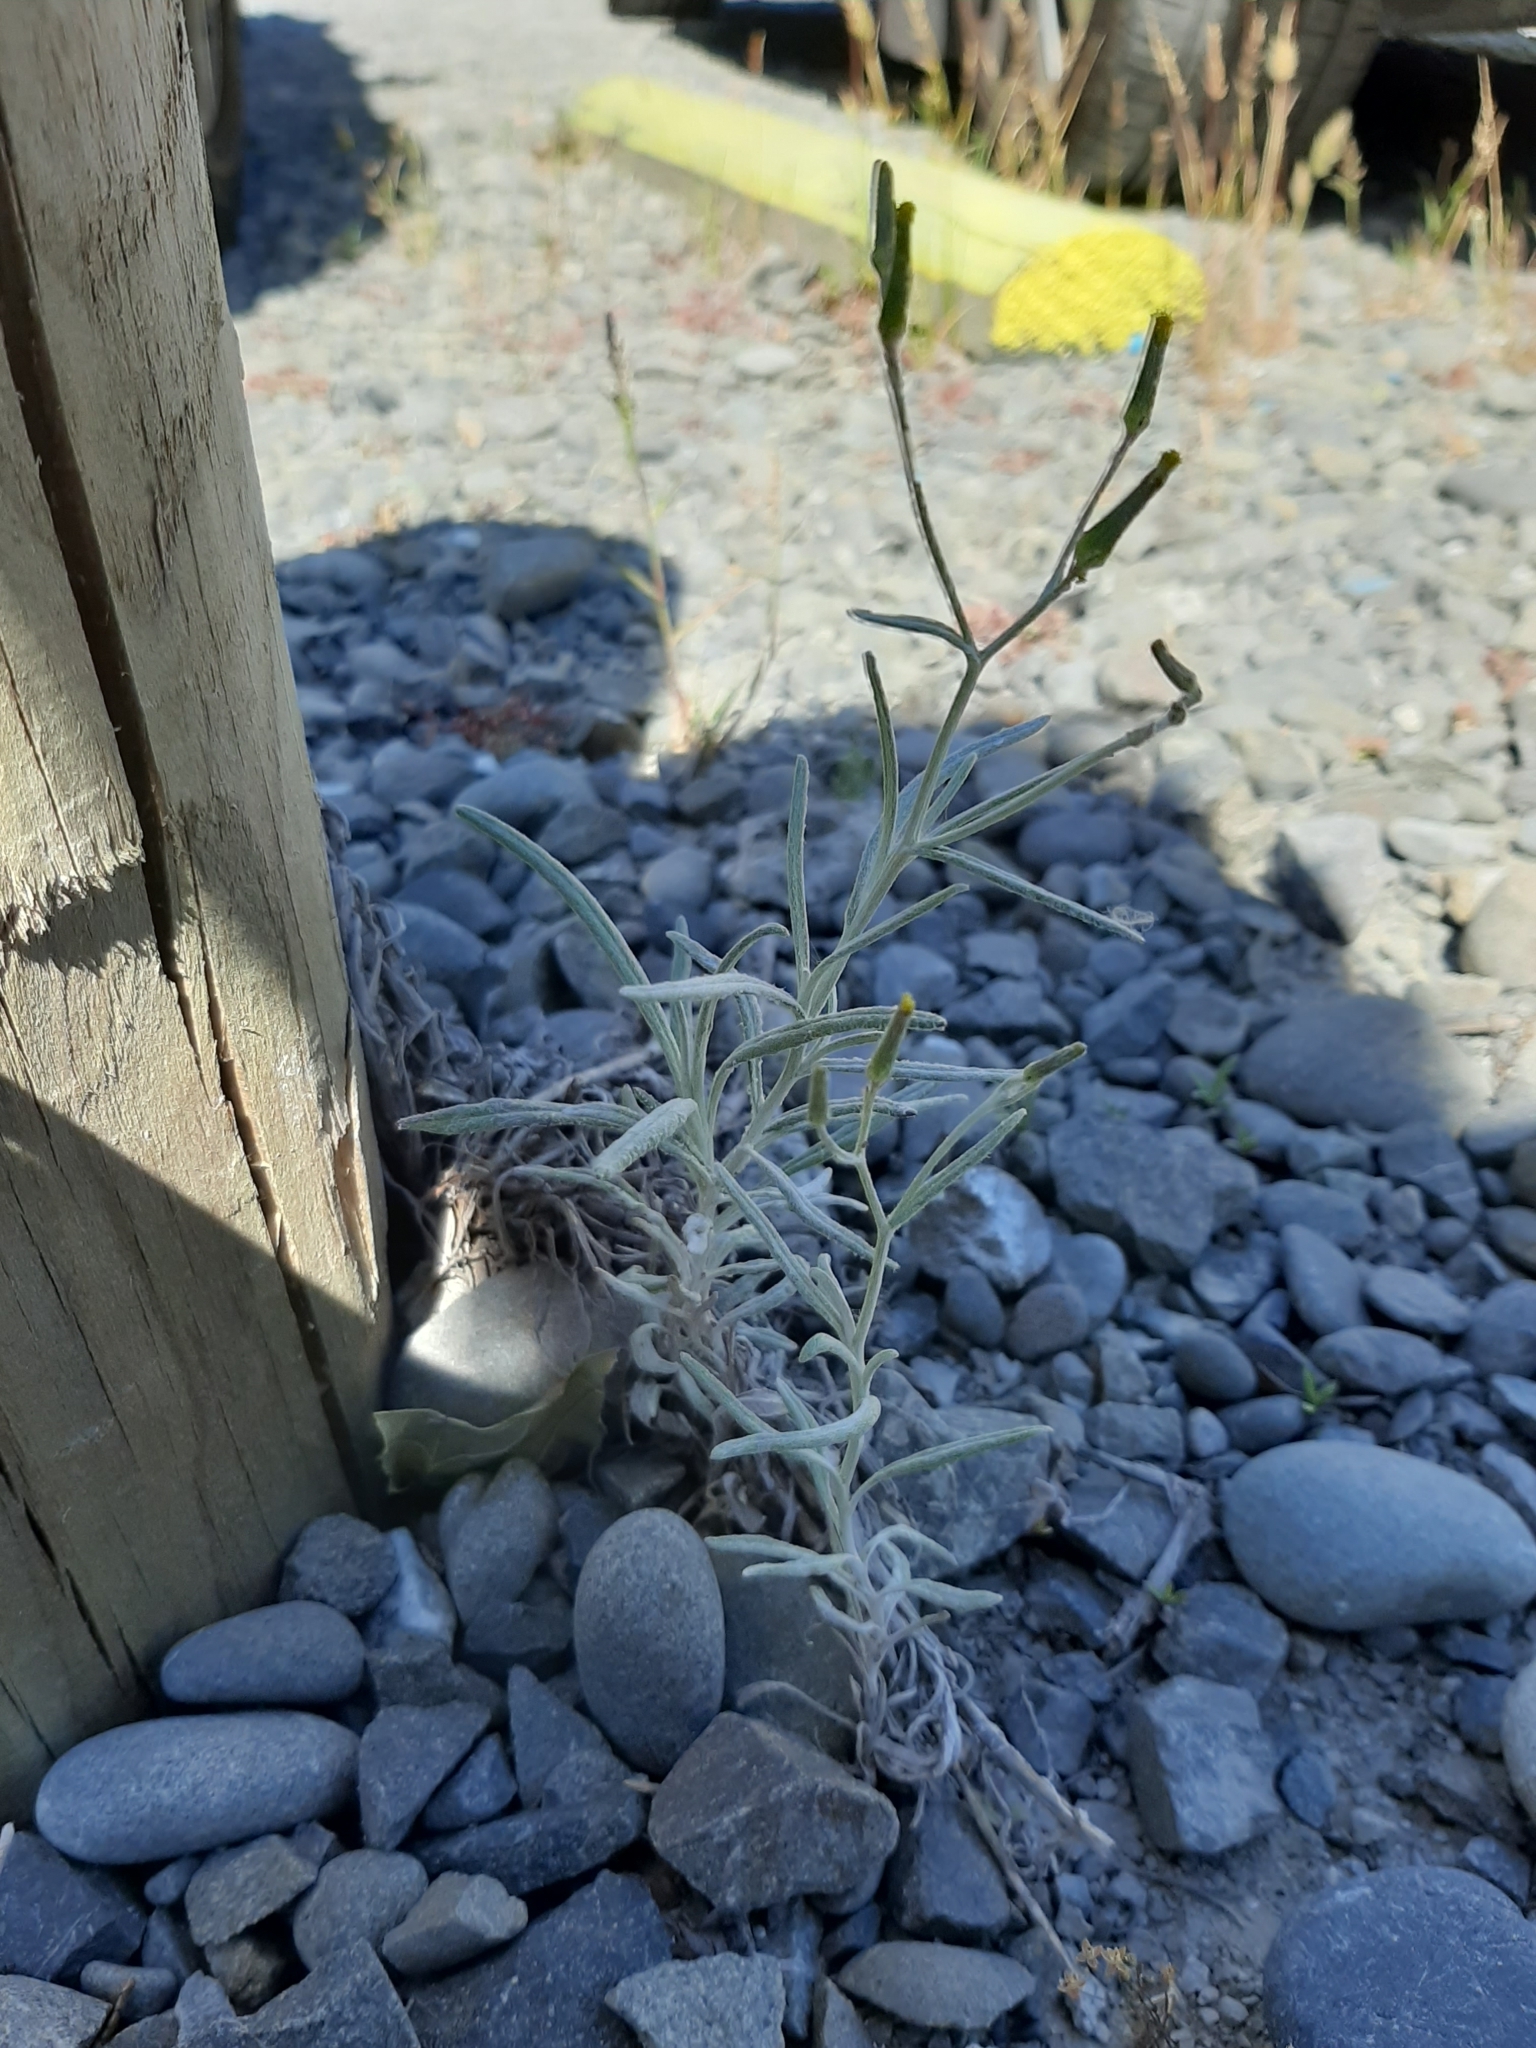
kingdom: Plantae
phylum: Tracheophyta
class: Magnoliopsida
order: Asterales
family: Asteraceae
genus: Senecio
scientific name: Senecio quadridentatus
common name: Cotton fireweed
